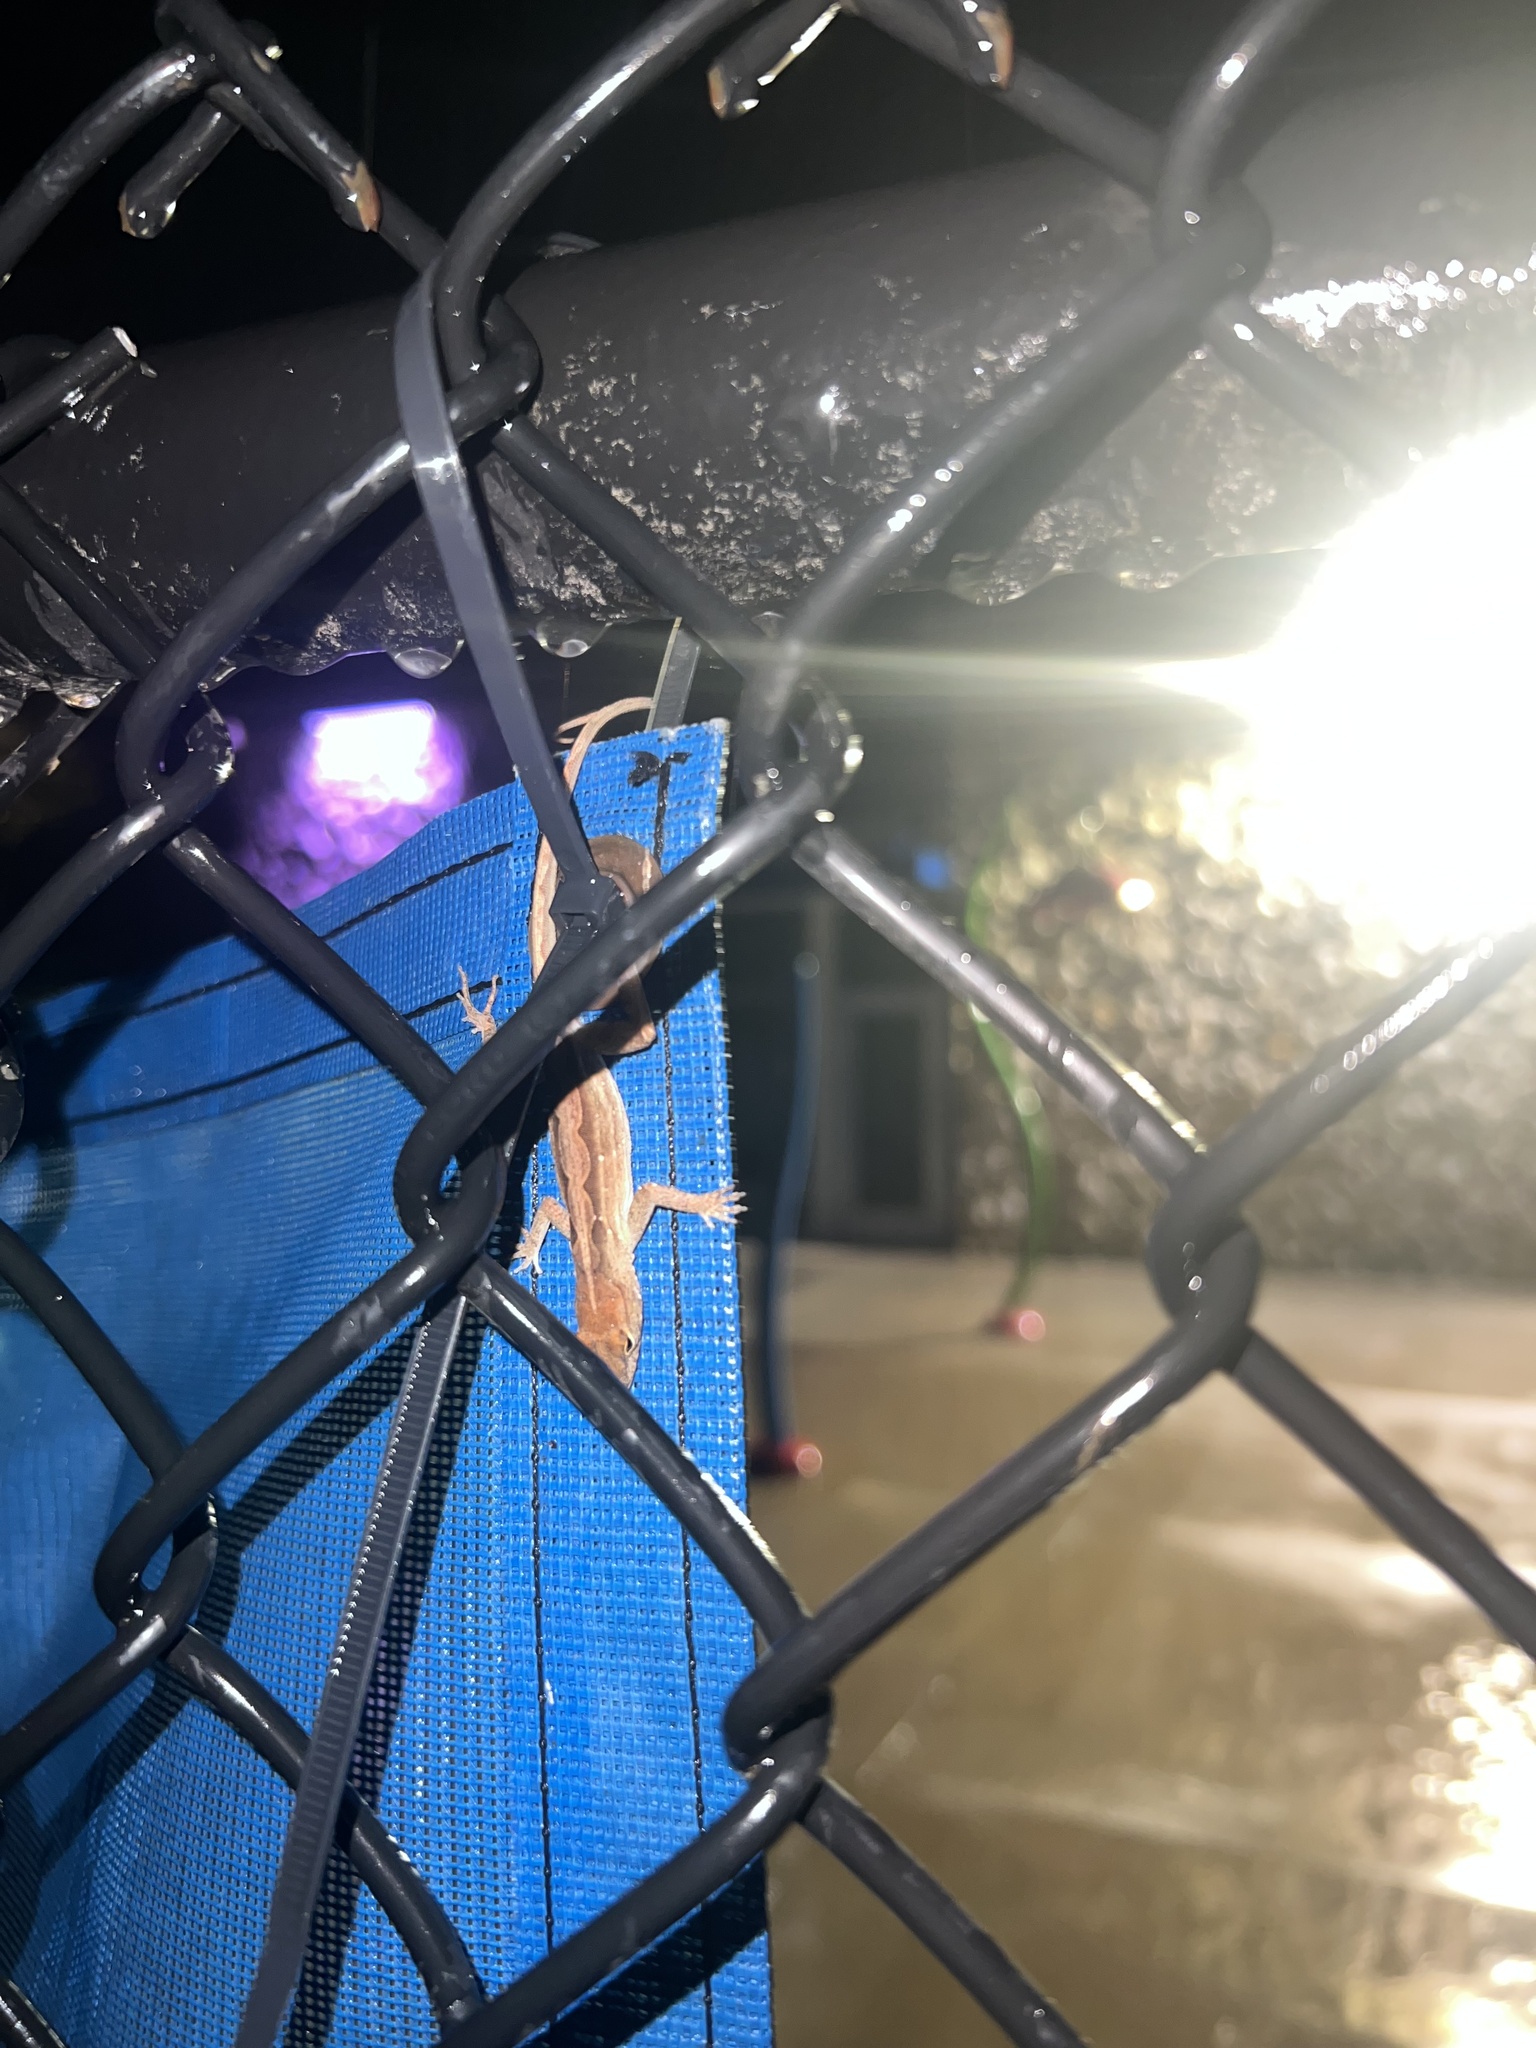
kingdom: Animalia
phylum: Chordata
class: Squamata
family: Dactyloidae
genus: Anolis
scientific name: Anolis sagrei
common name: Brown anole
